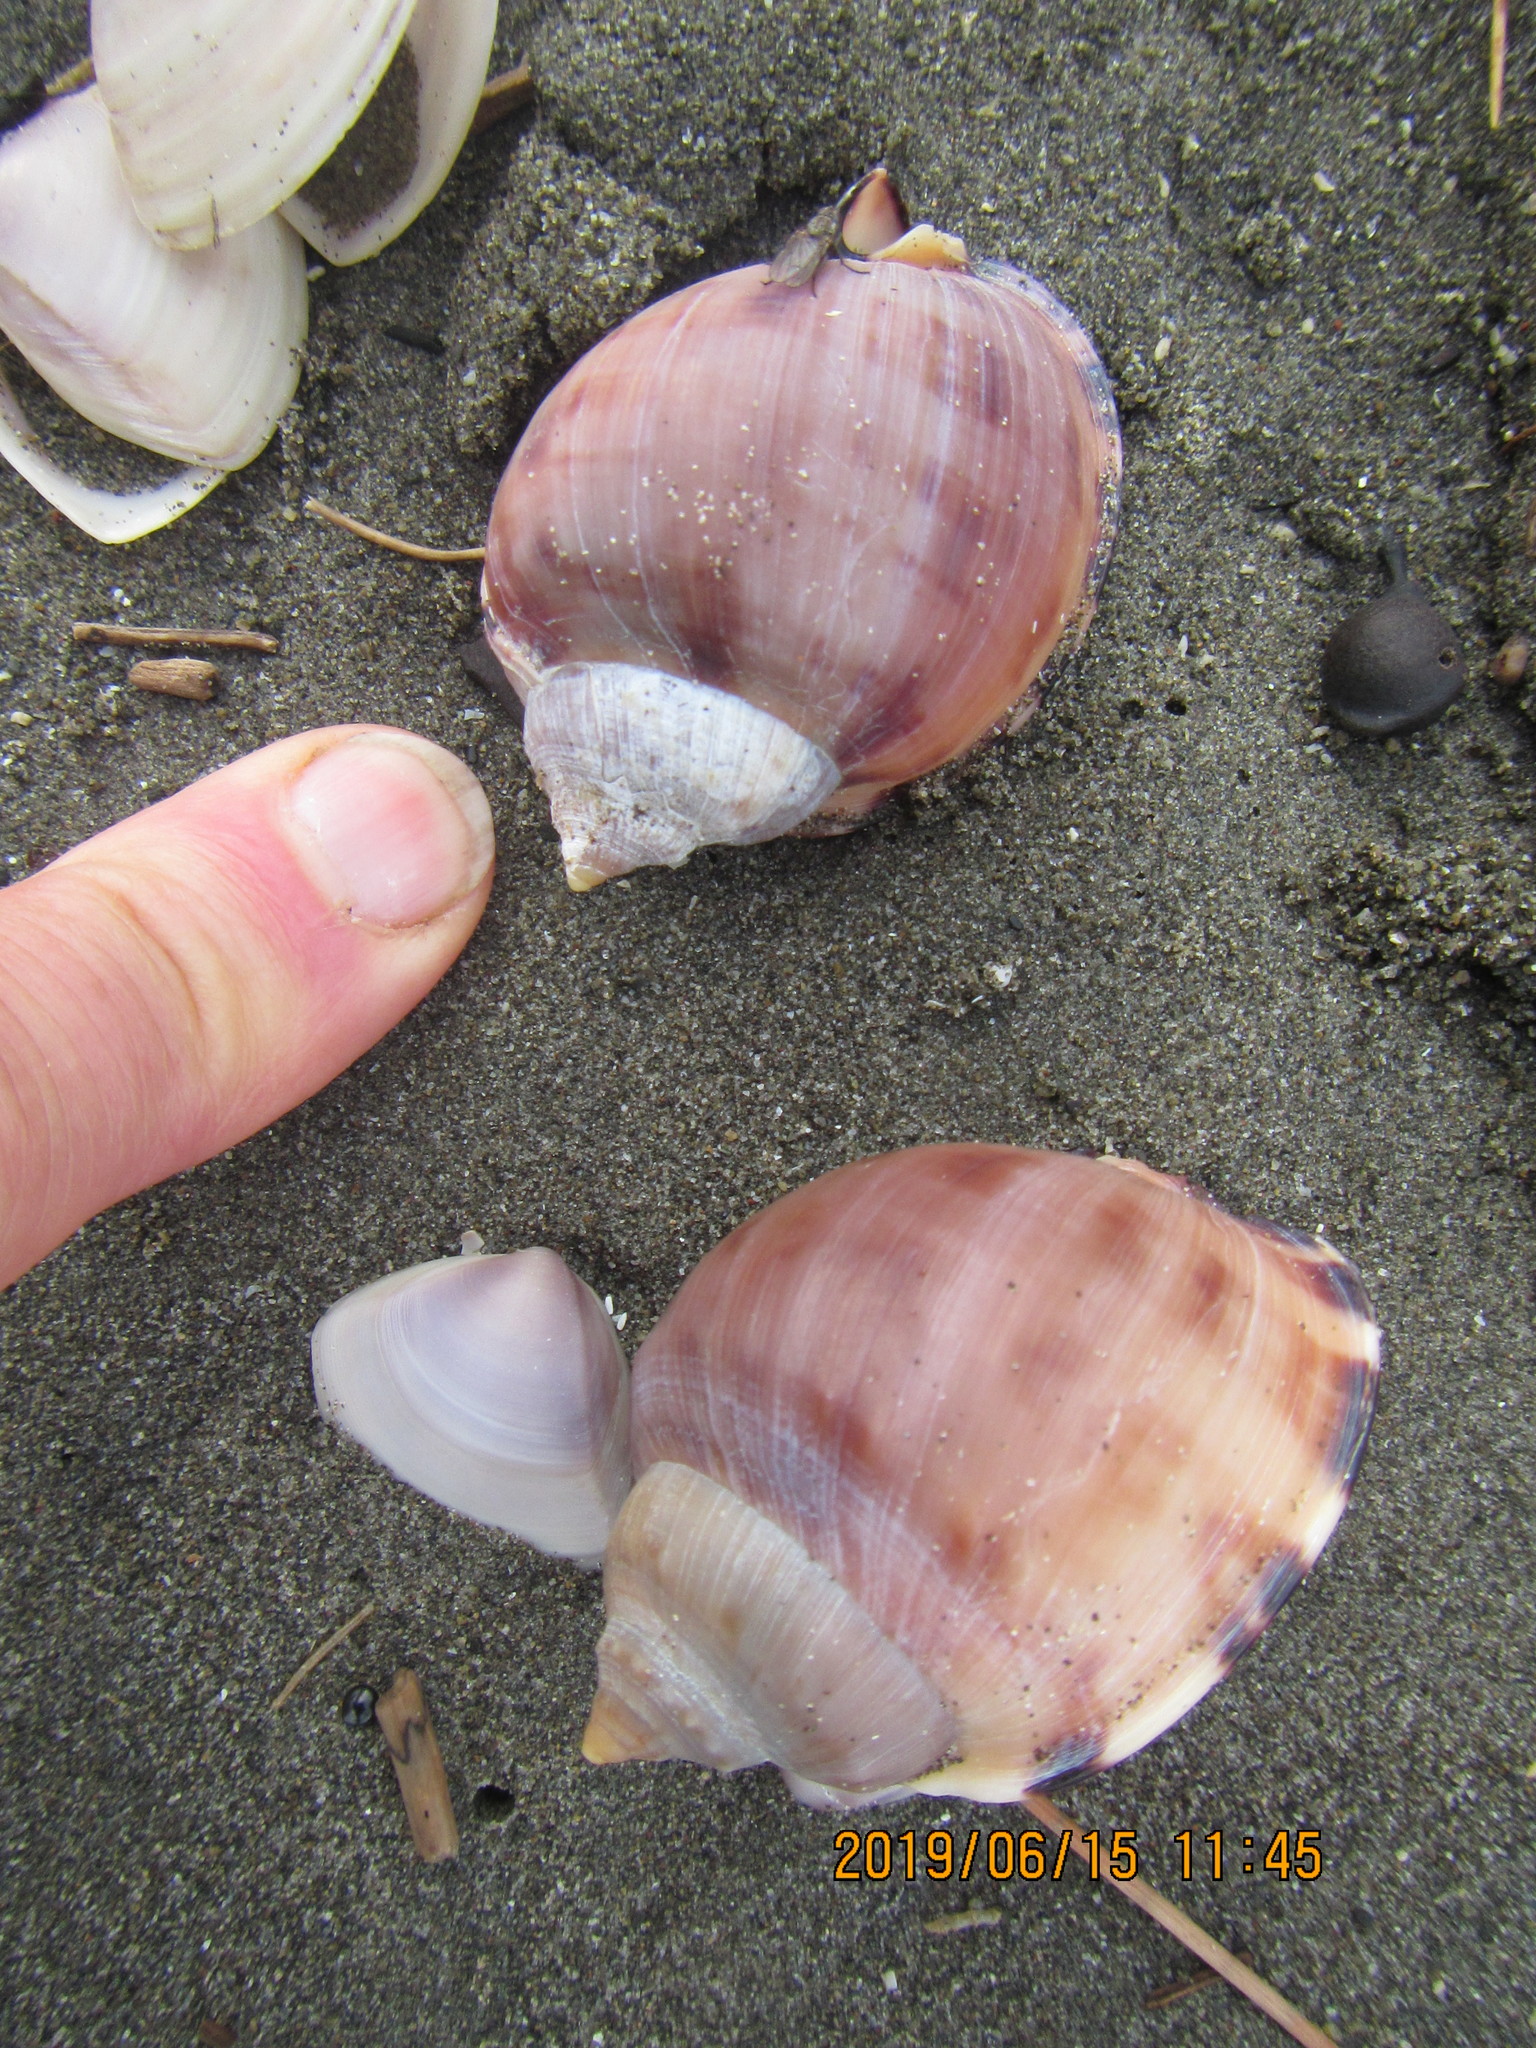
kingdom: Animalia
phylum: Mollusca
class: Gastropoda
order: Littorinimorpha
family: Cassidae
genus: Semicassis
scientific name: Semicassis pyrum
